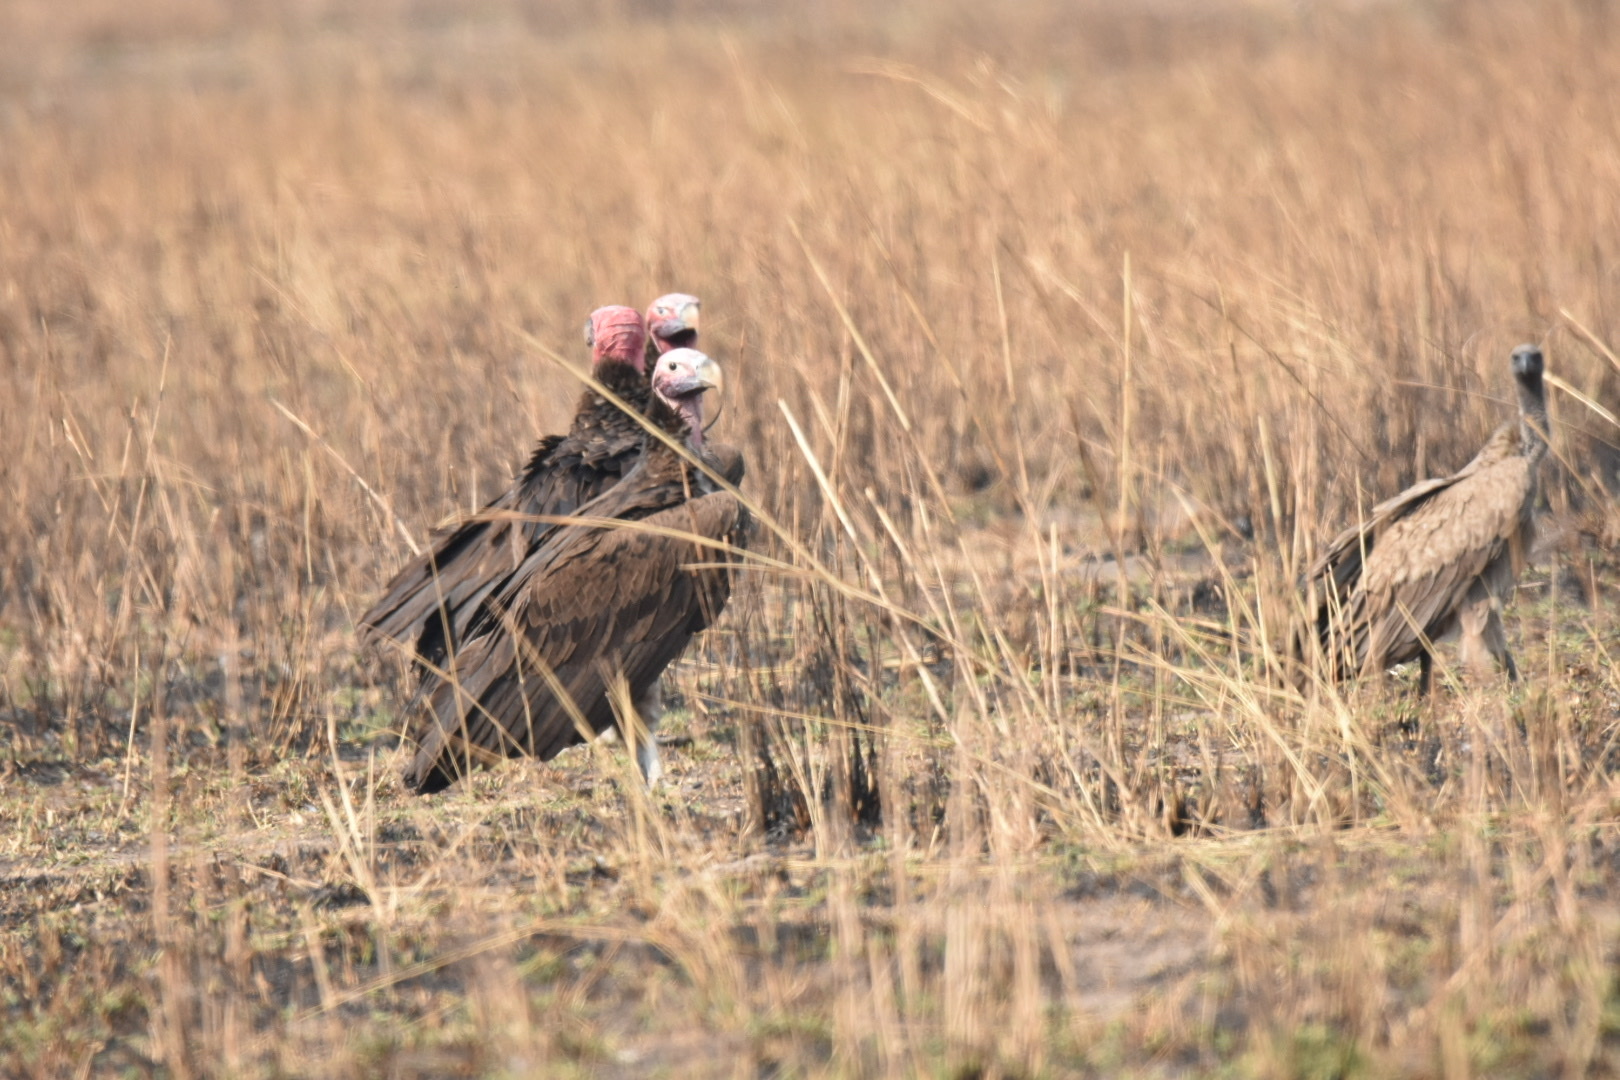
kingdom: Animalia
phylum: Chordata
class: Aves
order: Accipitriformes
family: Accipitridae
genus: Torgos
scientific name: Torgos tracheliotos
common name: Lappet-faced vulture
